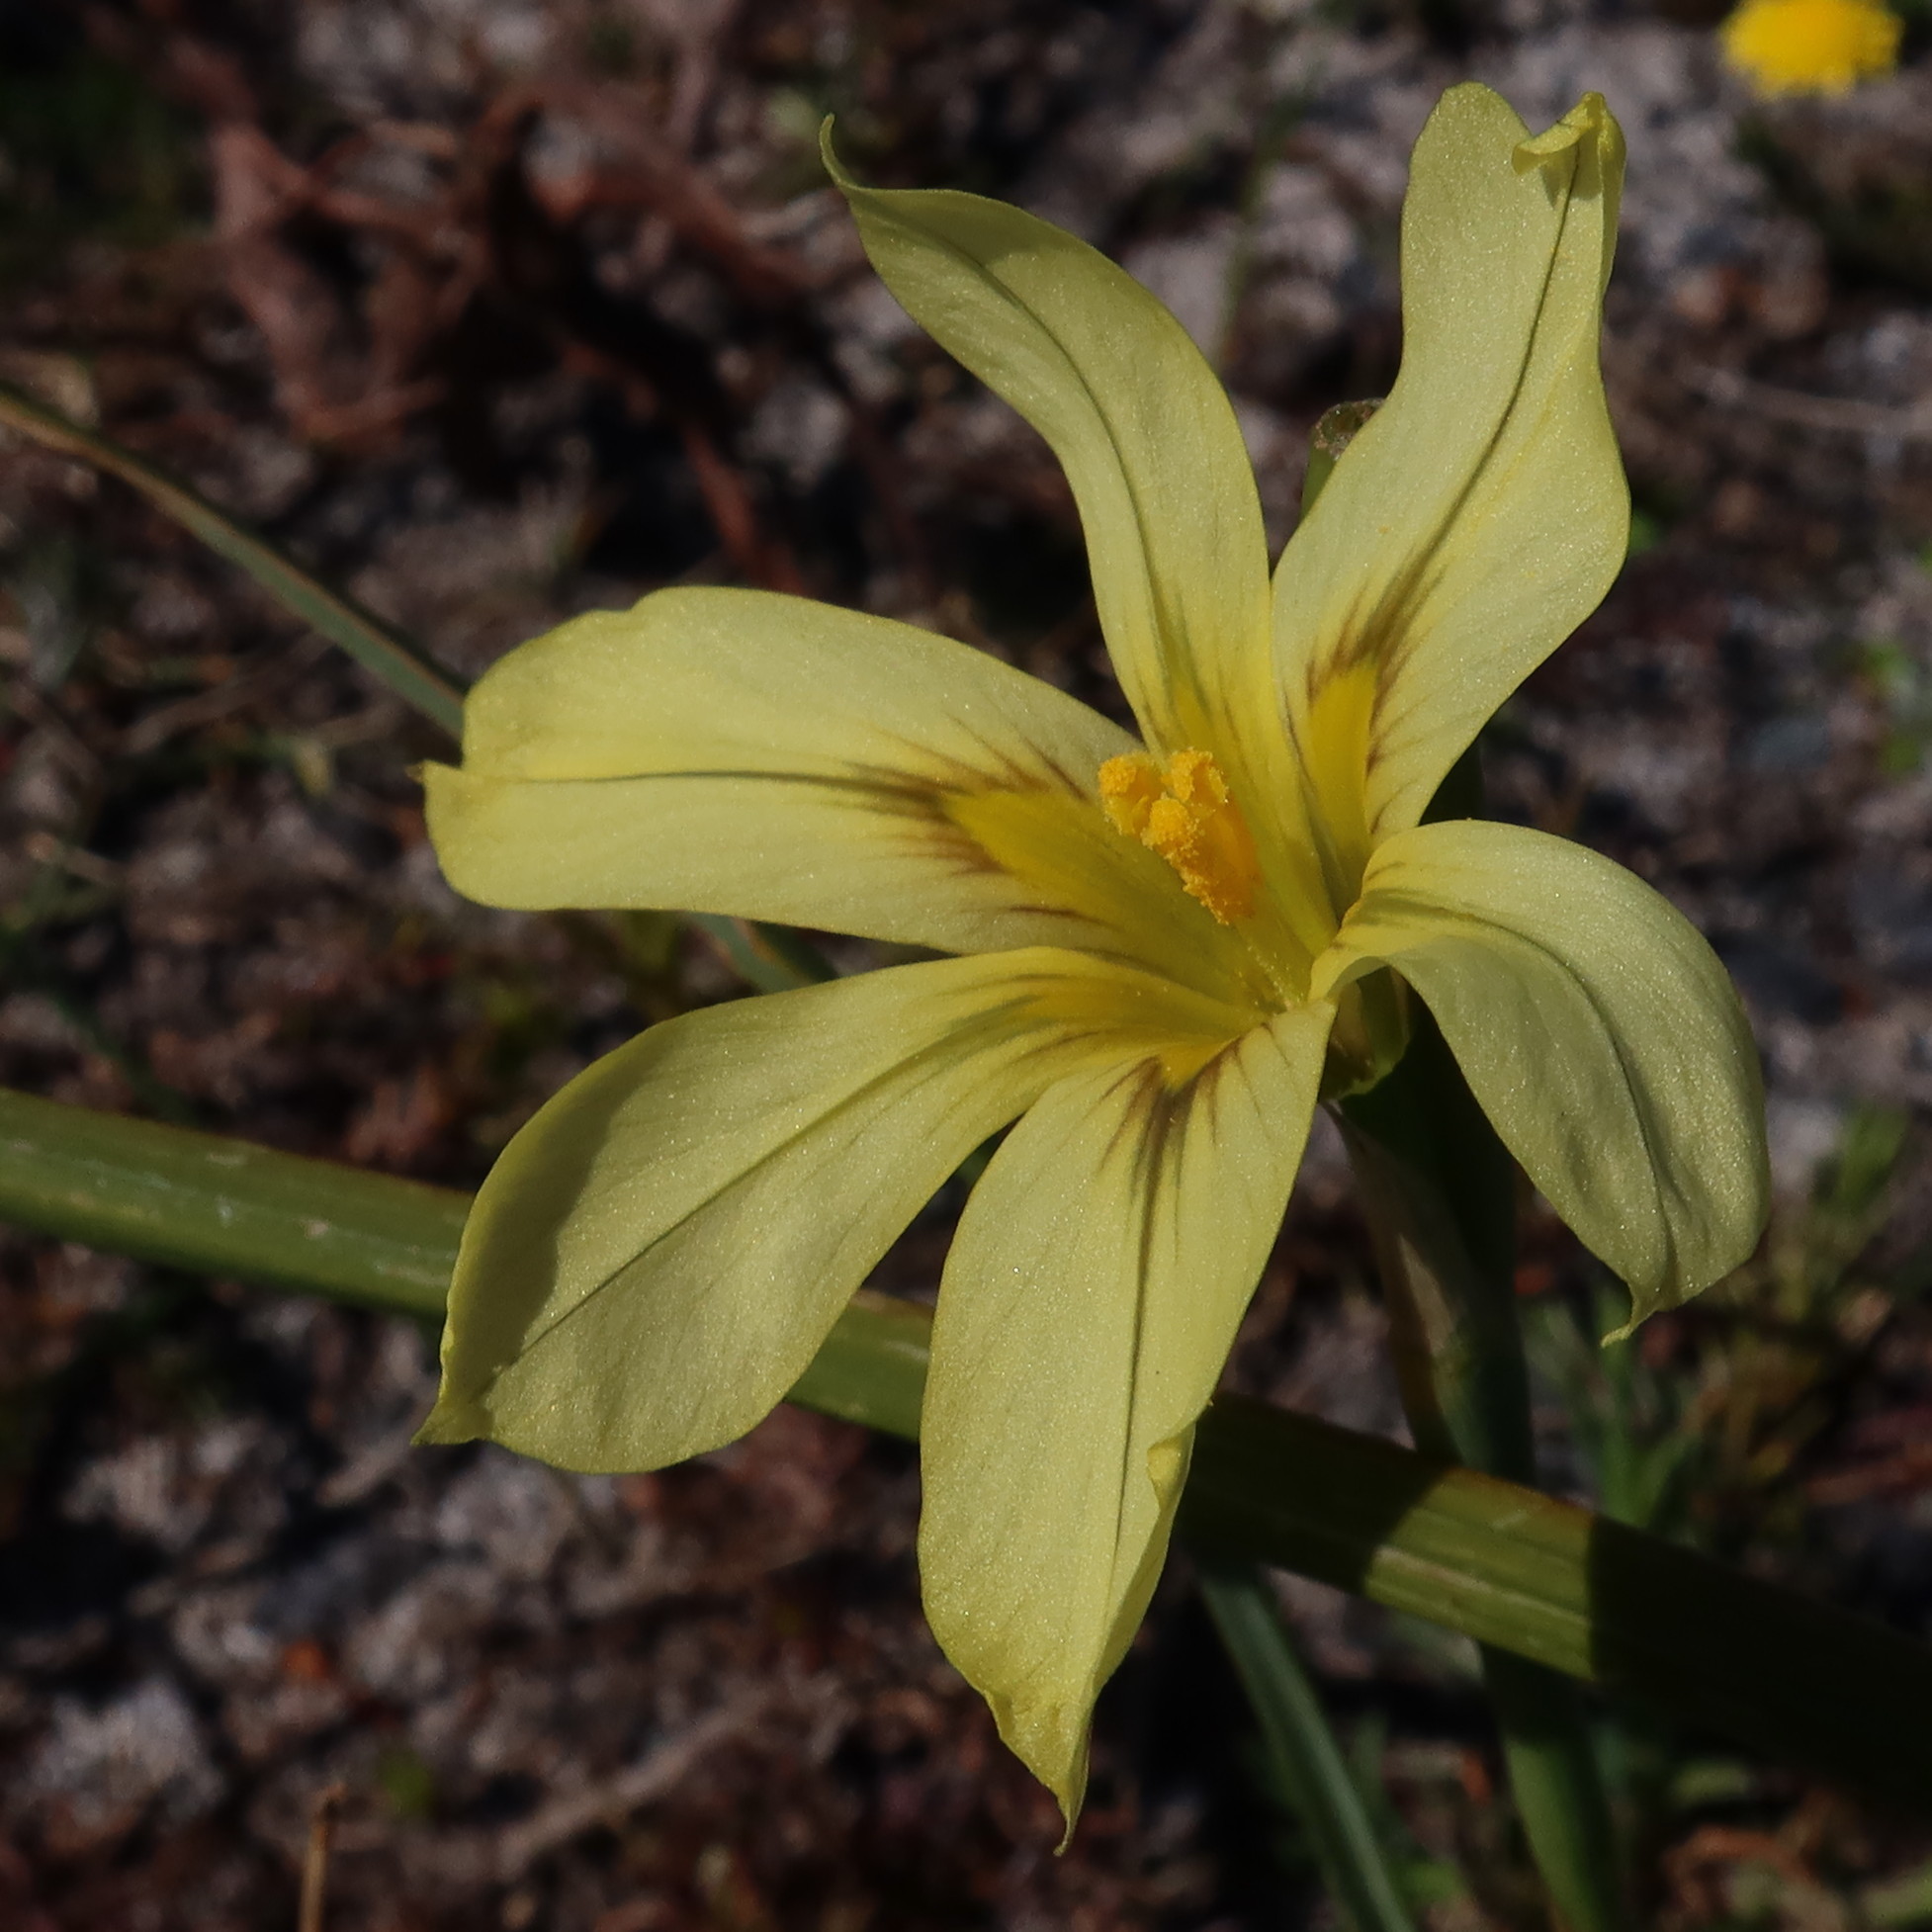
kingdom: Plantae
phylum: Tracheophyta
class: Liliopsida
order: Asparagales
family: Iridaceae
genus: Moraea
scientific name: Moraea collina
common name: Cape-tulip
